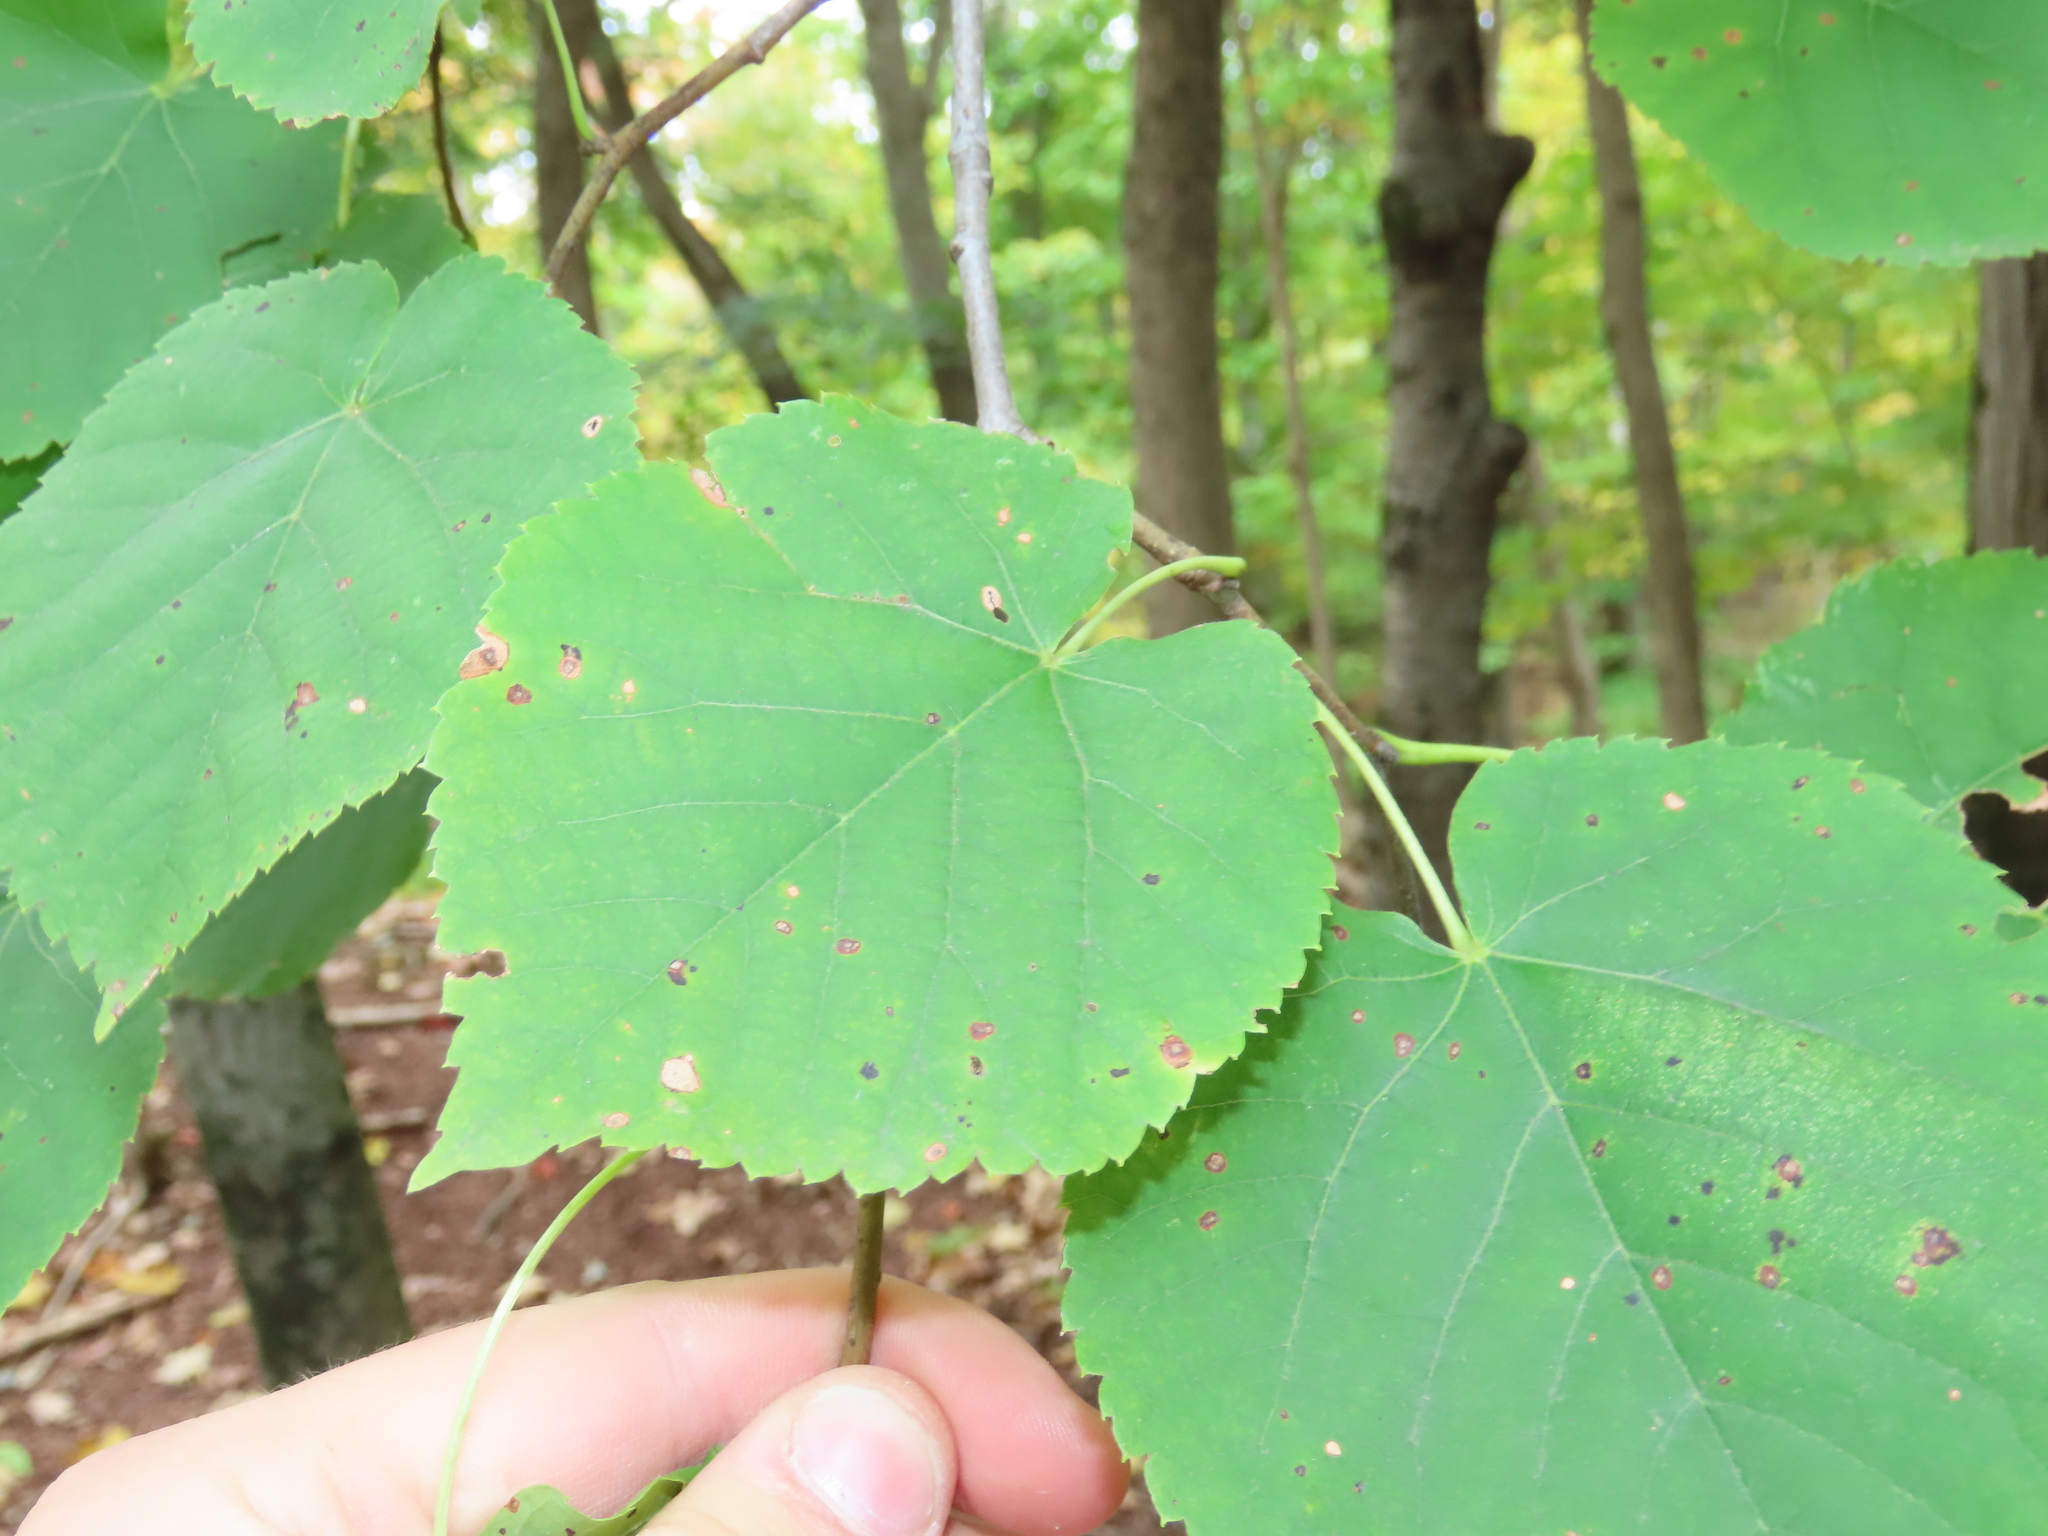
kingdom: Plantae
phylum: Tracheophyta
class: Magnoliopsida
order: Malvales
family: Malvaceae
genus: Tilia
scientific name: Tilia americana
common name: Basswood
